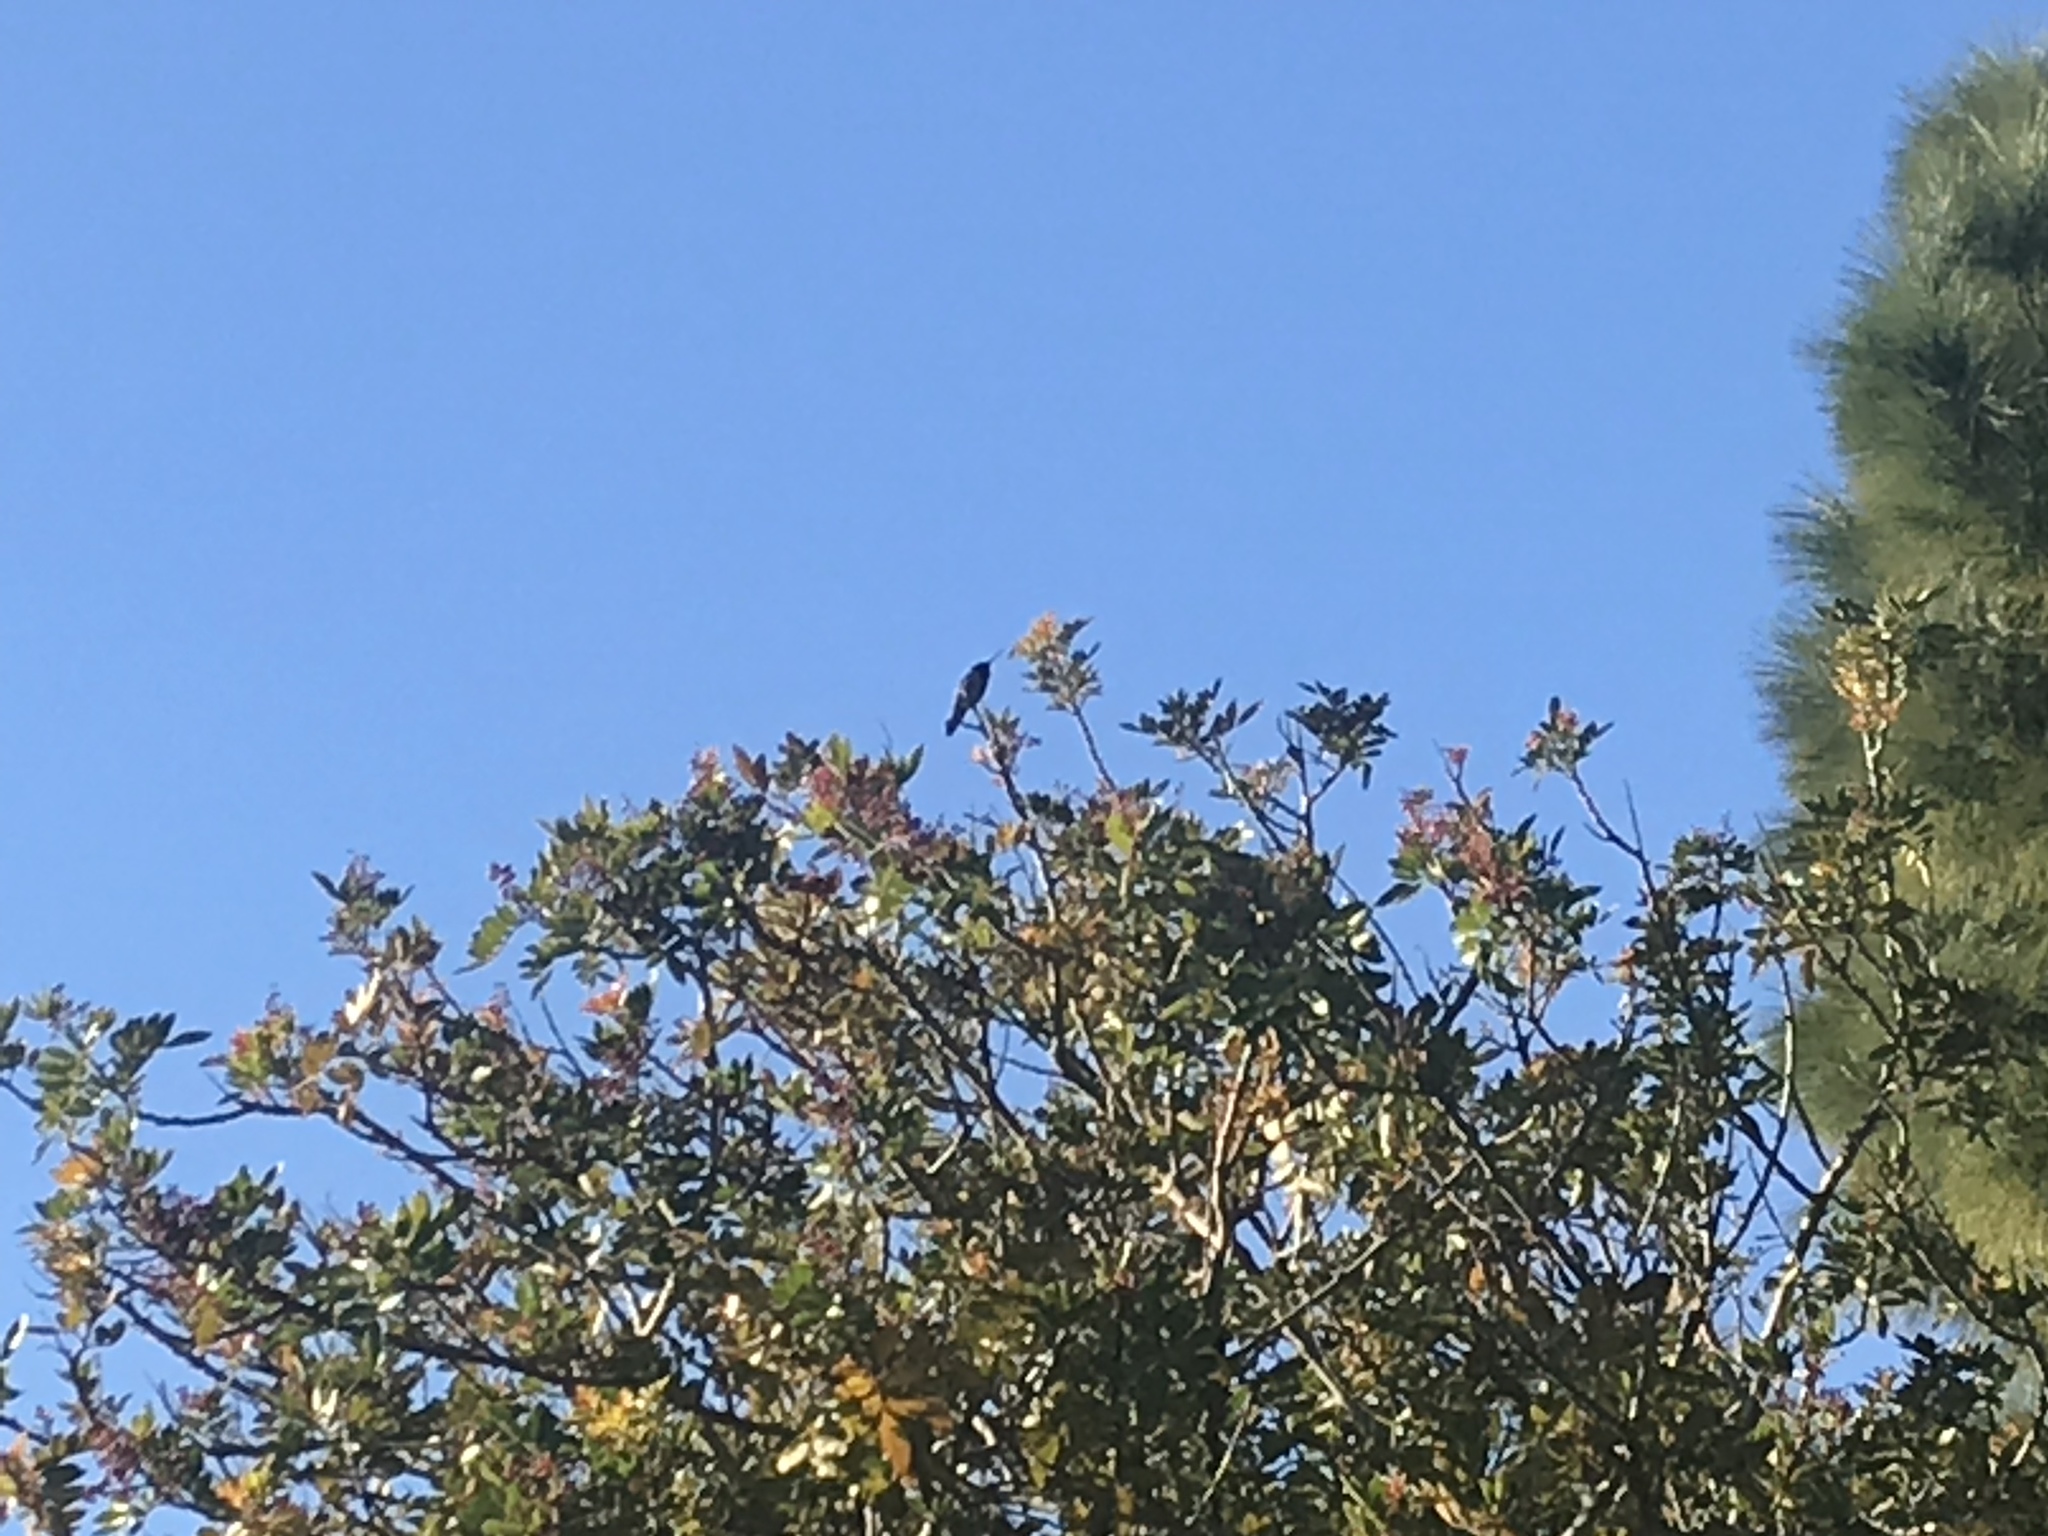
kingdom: Animalia
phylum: Chordata
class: Aves
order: Apodiformes
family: Trochilidae
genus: Calypte
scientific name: Calypte anna
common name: Anna's hummingbird
